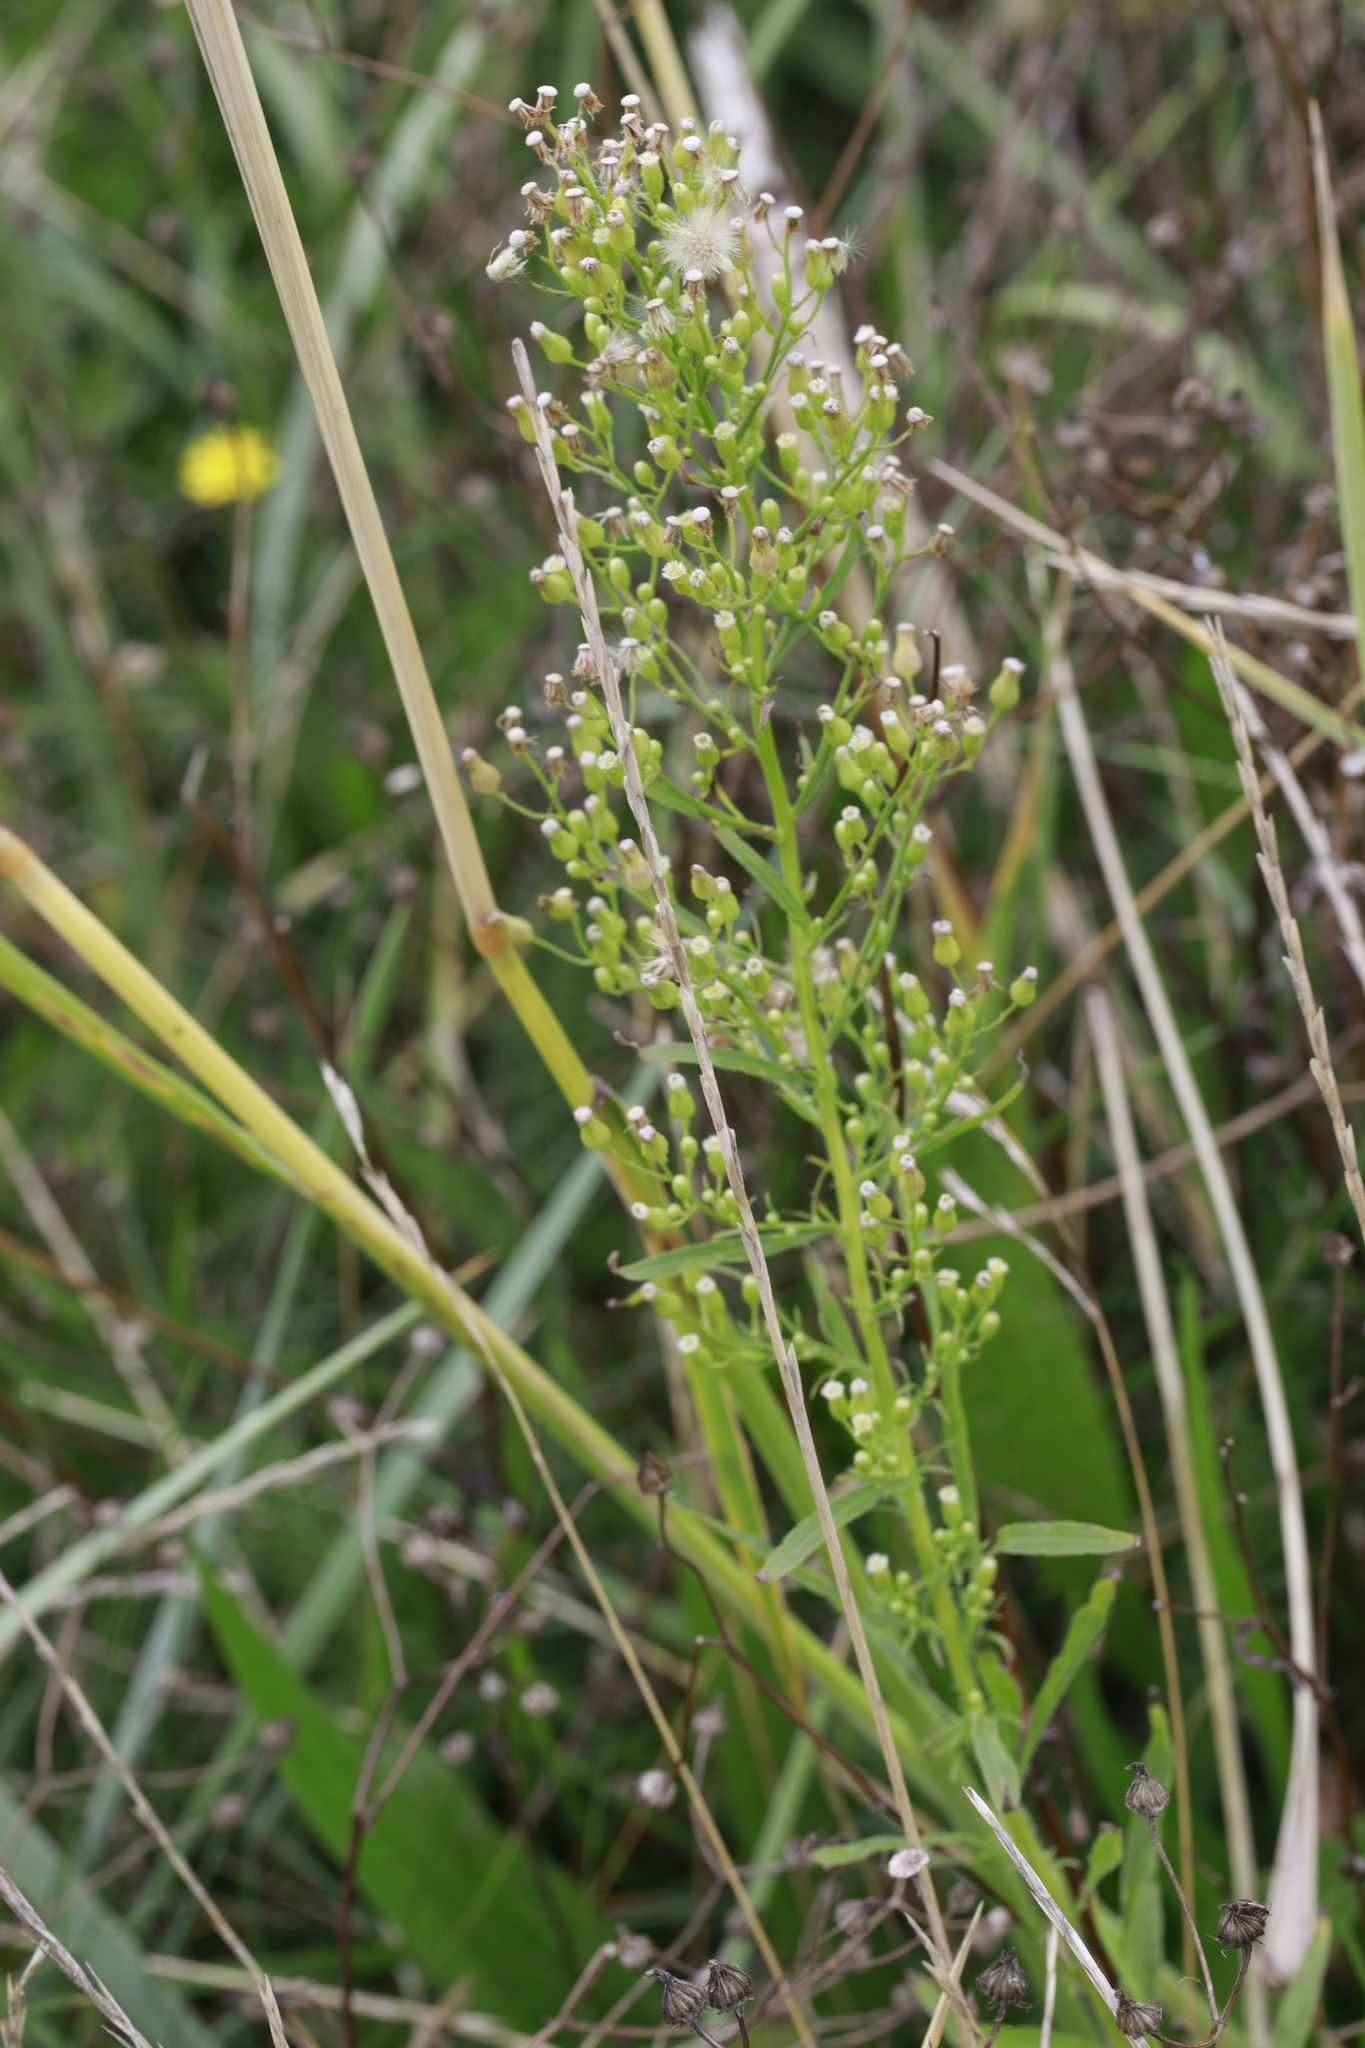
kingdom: Plantae
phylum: Tracheophyta
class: Magnoliopsida
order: Asterales
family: Asteraceae
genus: Erigeron
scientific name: Erigeron canadensis
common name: Canadian fleabane
